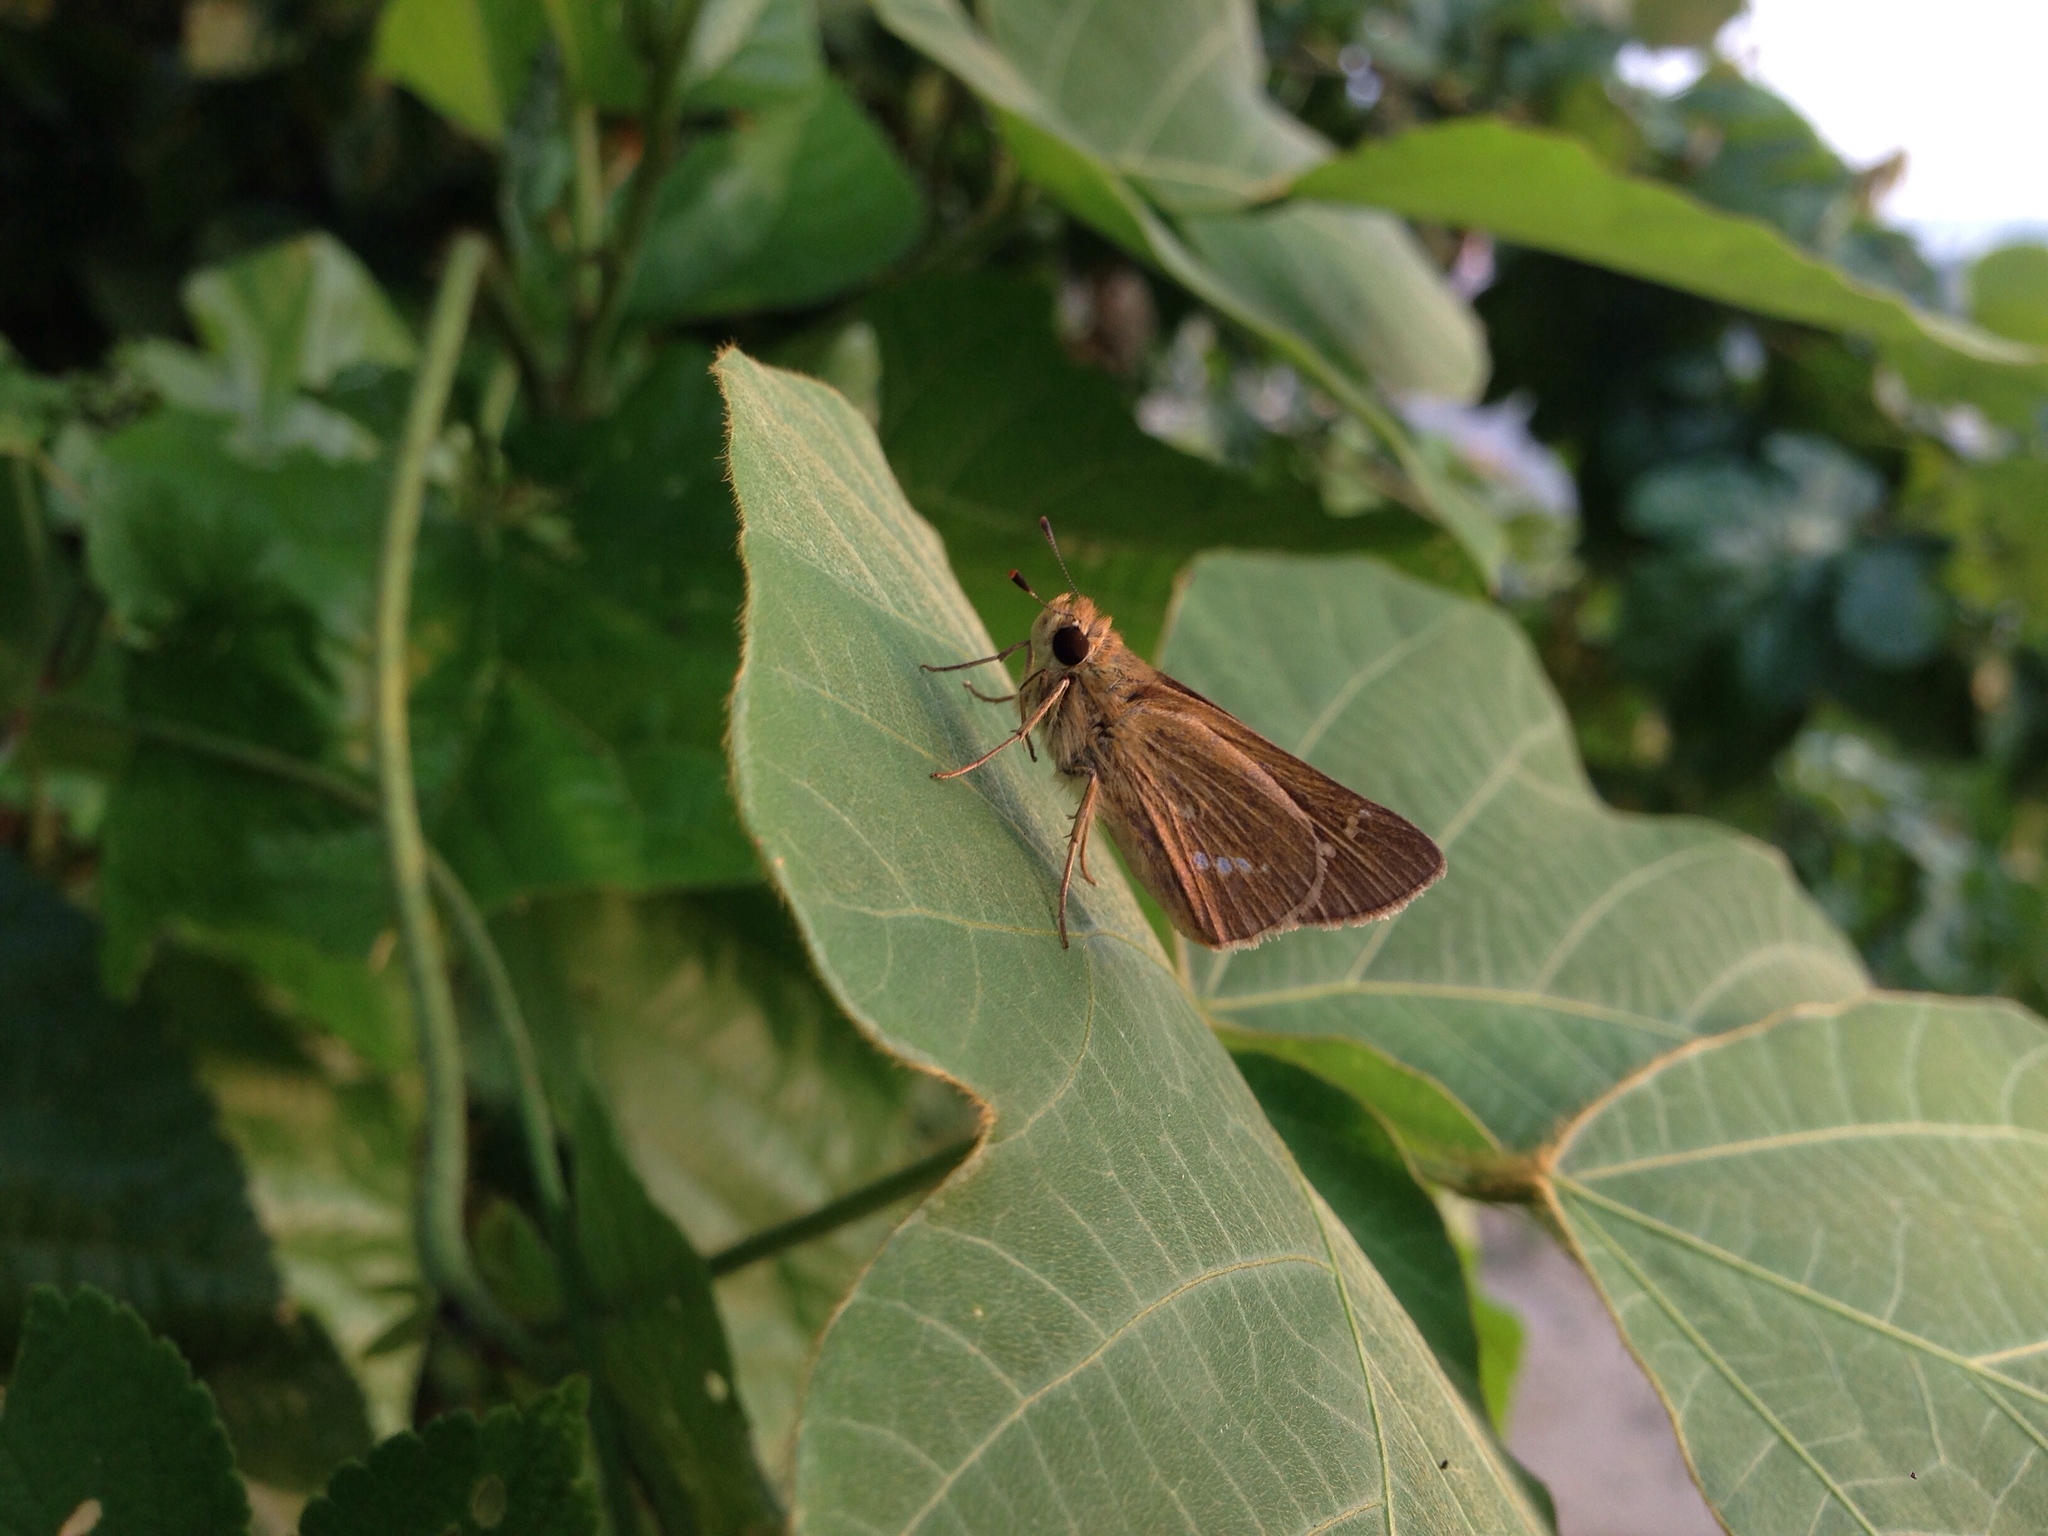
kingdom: Animalia
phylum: Arthropoda
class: Insecta
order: Lepidoptera
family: Hesperiidae
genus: Parnara
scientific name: Parnara guttatus
